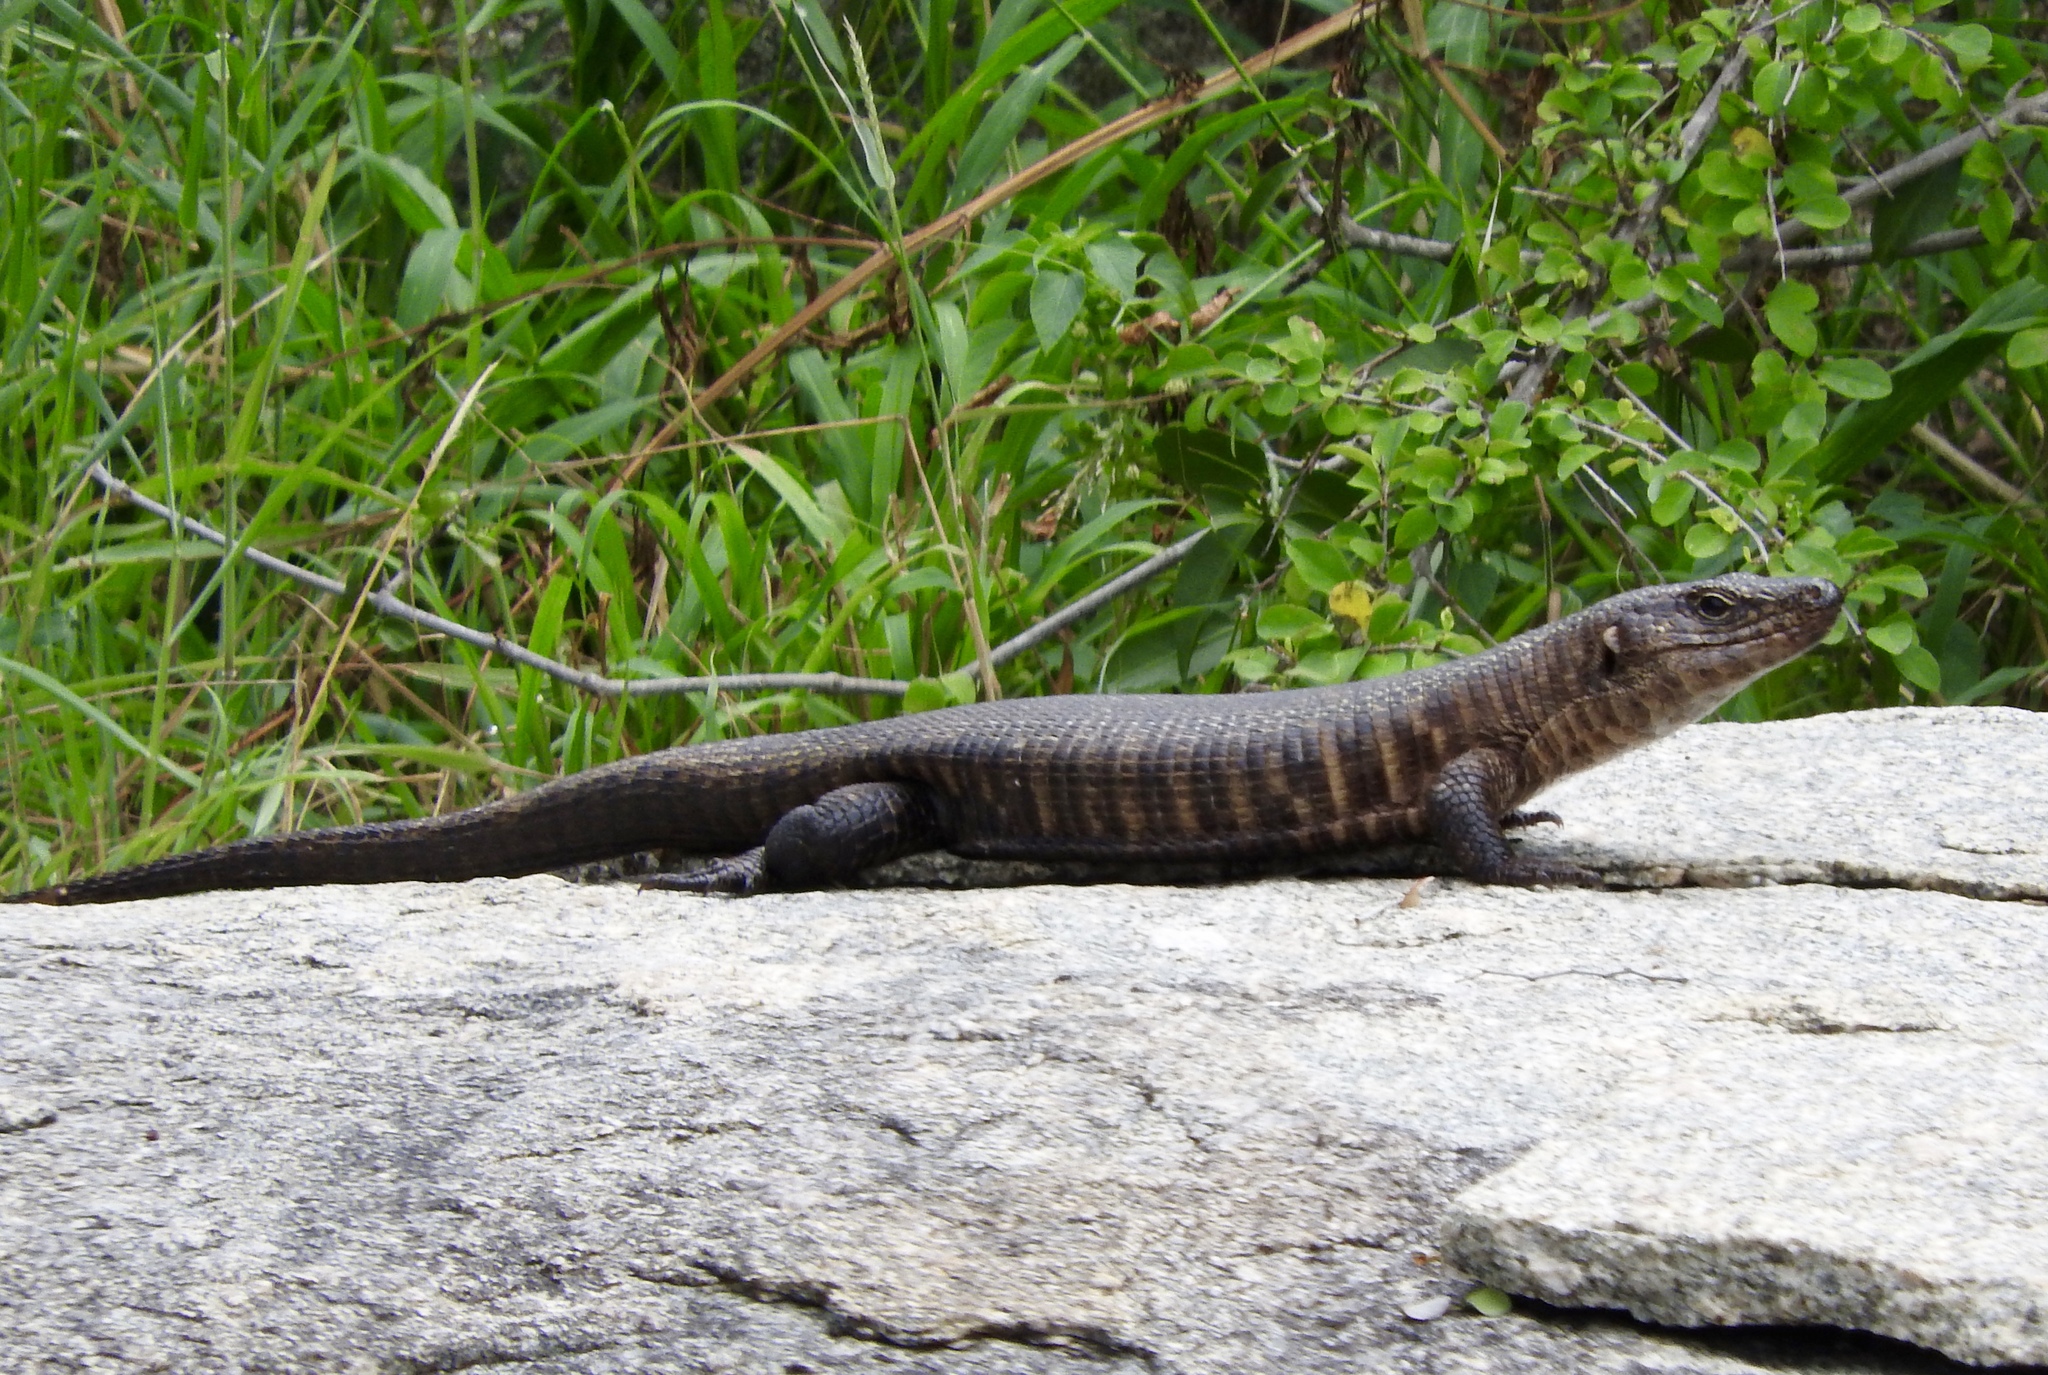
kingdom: Animalia
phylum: Chordata
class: Squamata
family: Gerrhosauridae
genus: Matobosaurus
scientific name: Matobosaurus validus
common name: Common giant plated lizard
